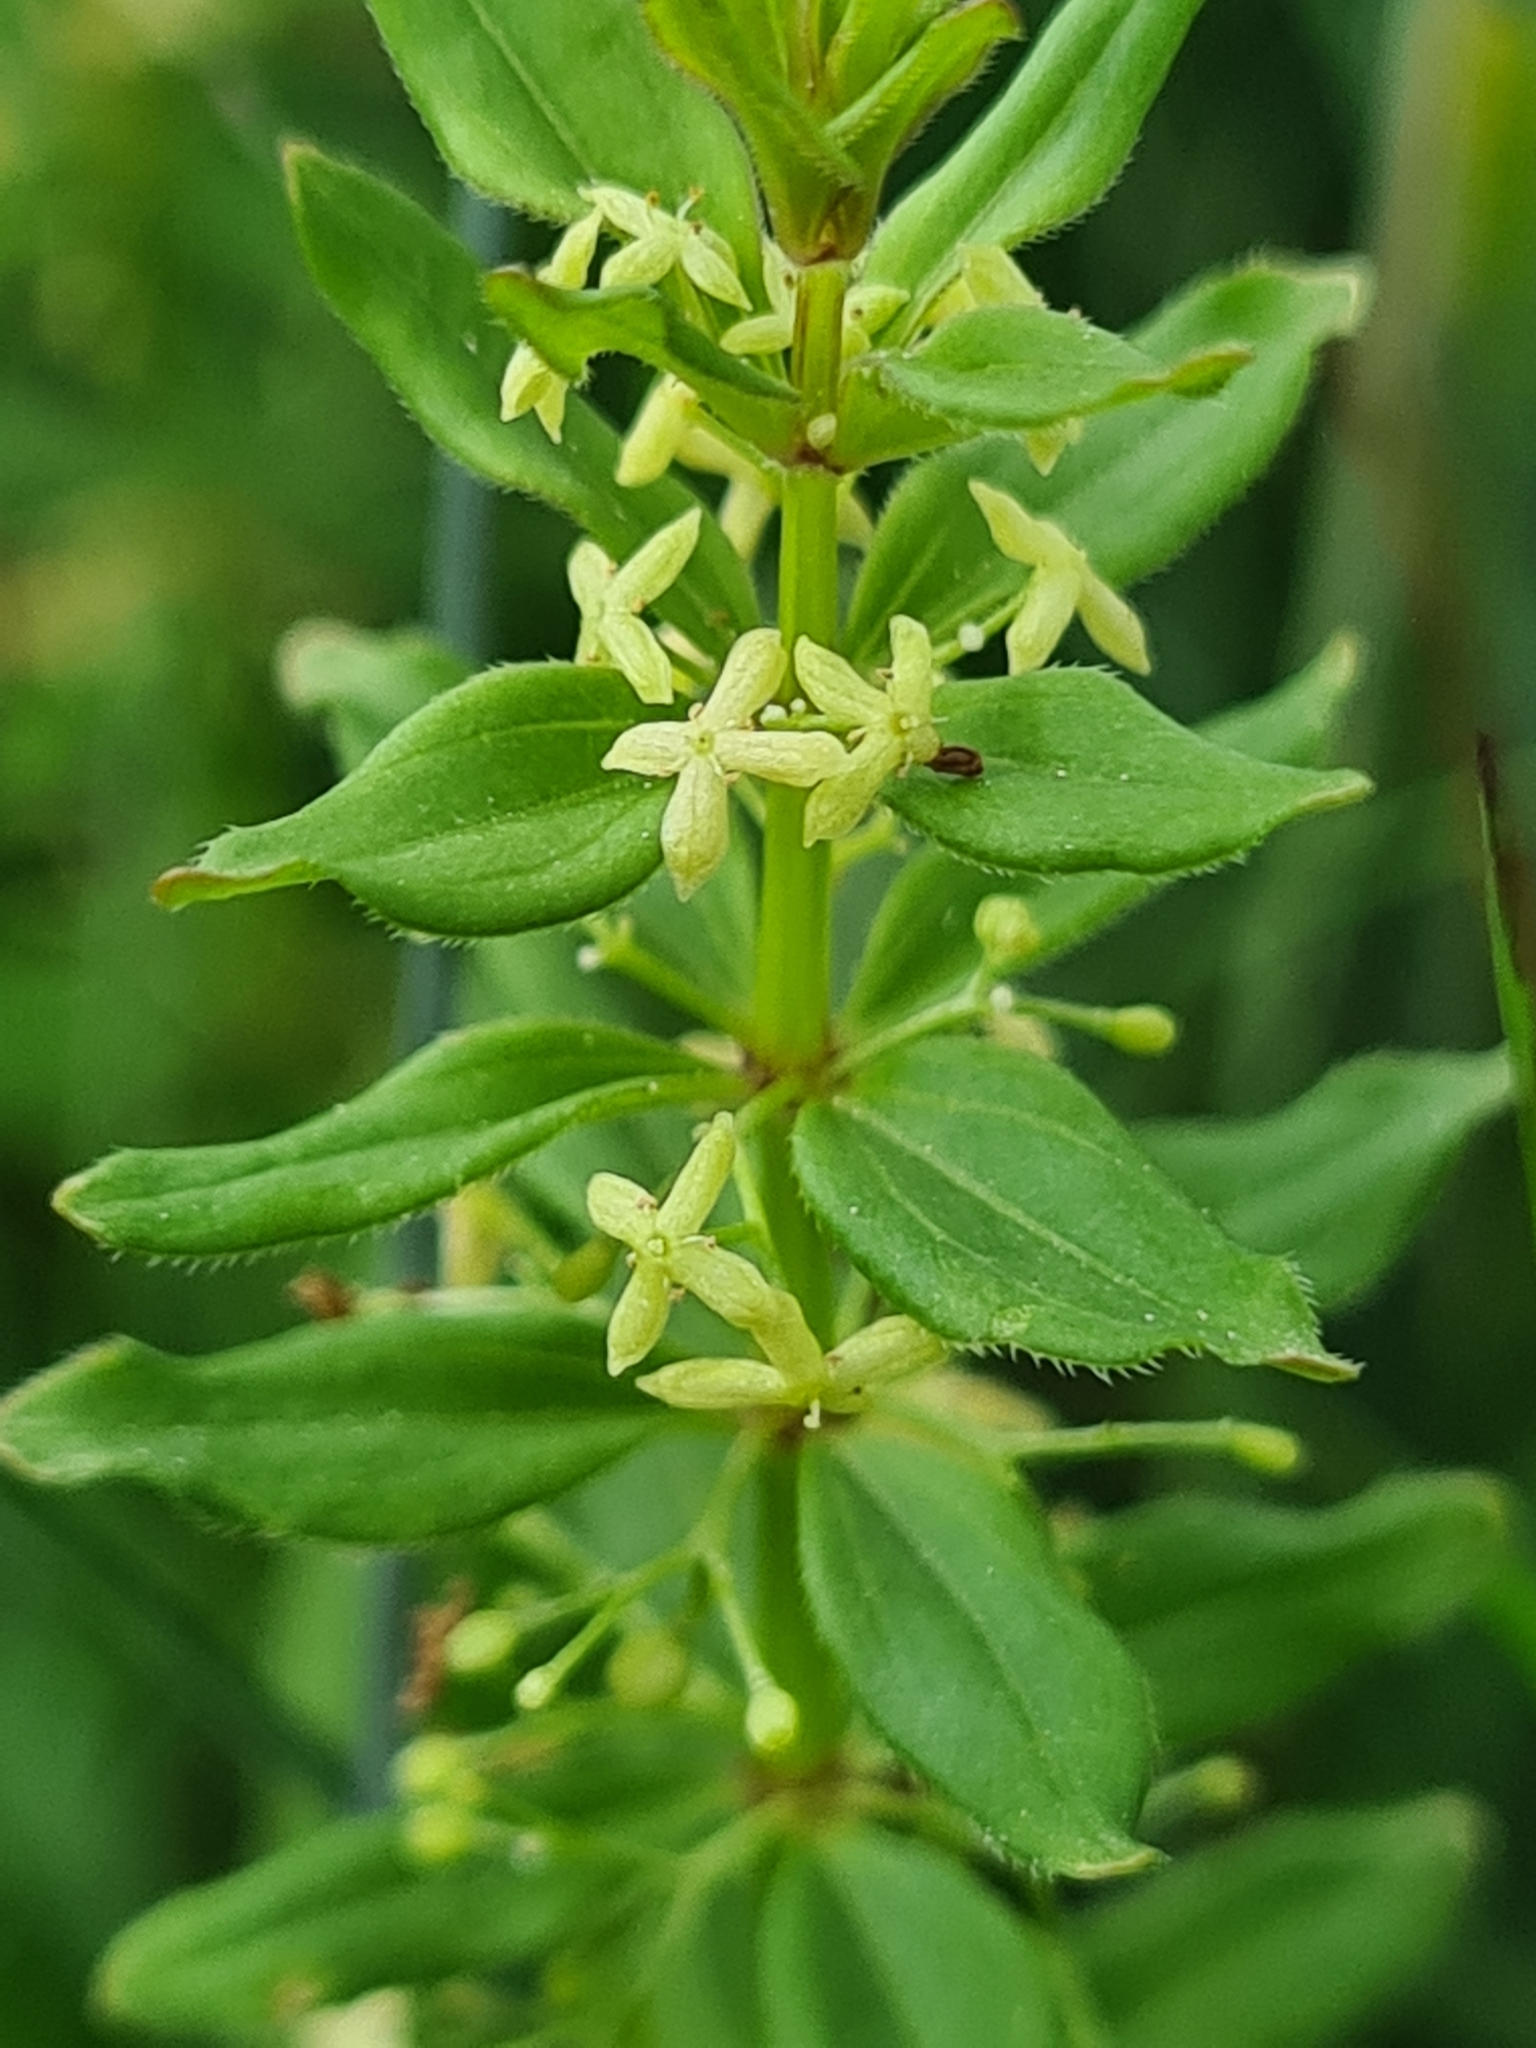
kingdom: Plantae
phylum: Tracheophyta
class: Magnoliopsida
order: Gentianales
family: Rubiaceae
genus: Cruciata
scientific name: Cruciata glabra
